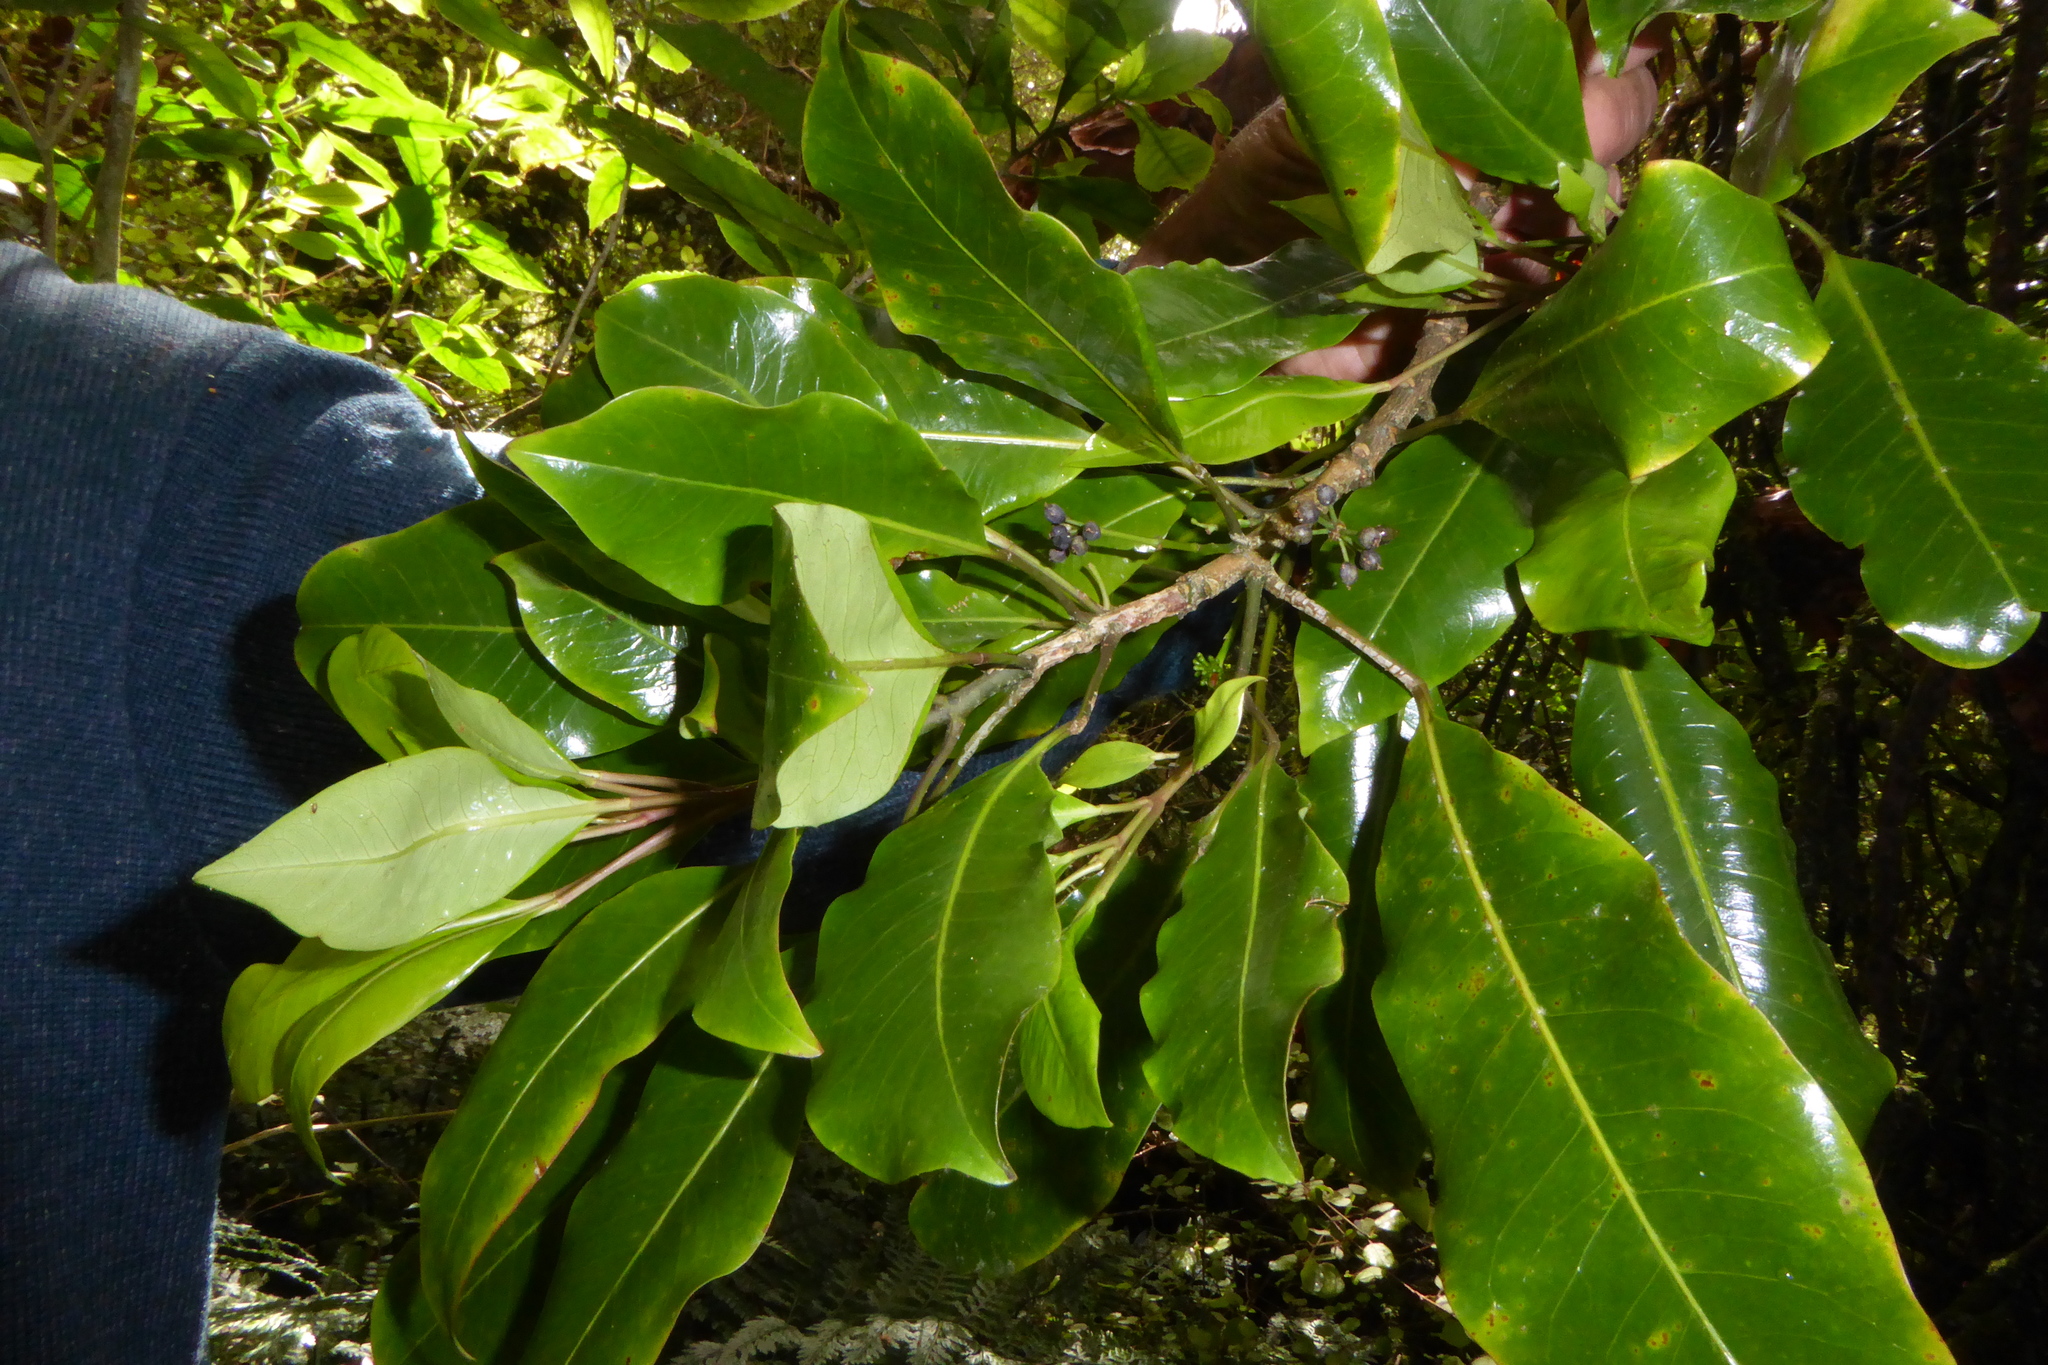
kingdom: Plantae
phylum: Tracheophyta
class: Magnoliopsida
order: Apiales
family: Araliaceae
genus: Raukaua
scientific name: Raukaua edgerleyi
